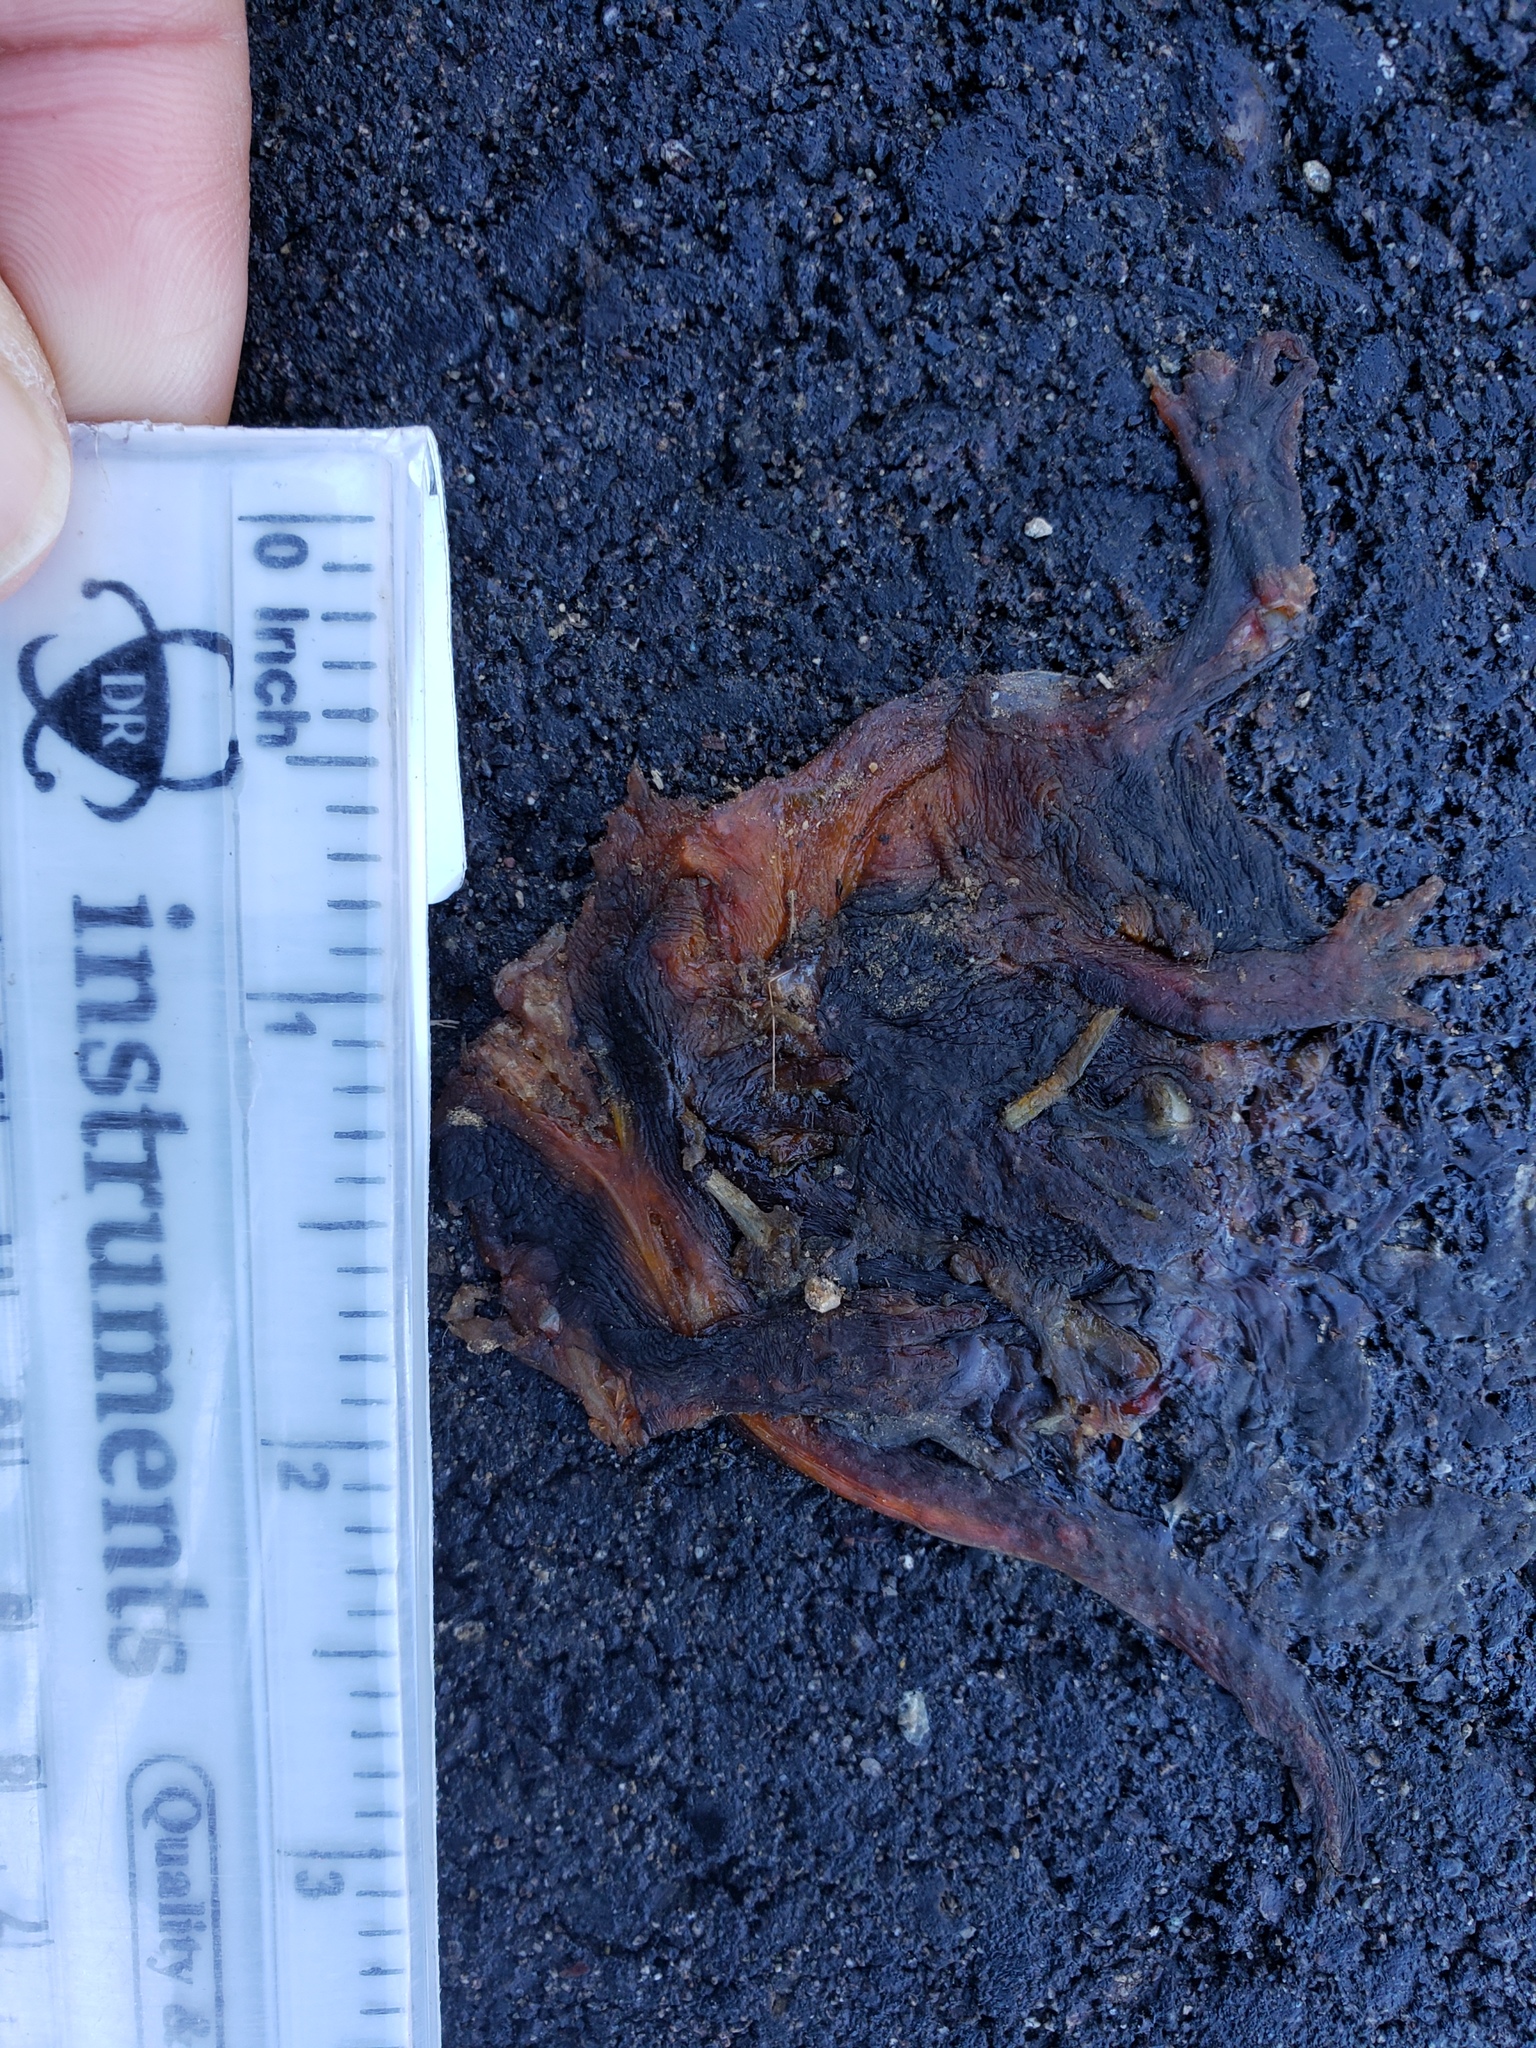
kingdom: Animalia
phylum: Chordata
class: Amphibia
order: Caudata
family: Salamandridae
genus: Taricha
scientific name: Taricha
